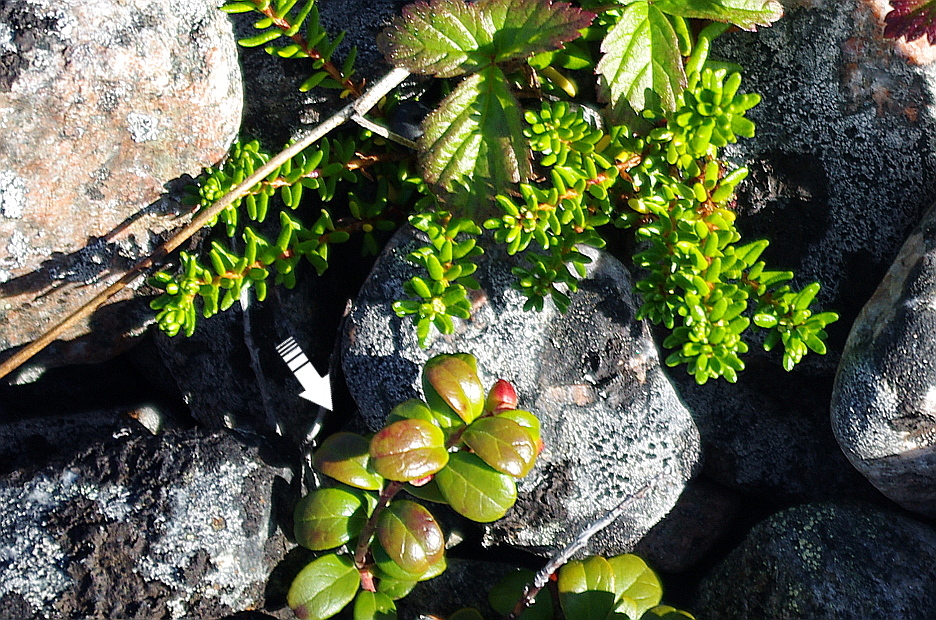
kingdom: Plantae
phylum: Tracheophyta
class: Magnoliopsida
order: Ericales
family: Ericaceae
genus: Vaccinium
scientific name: Vaccinium vitis-idaea
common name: Cowberry
